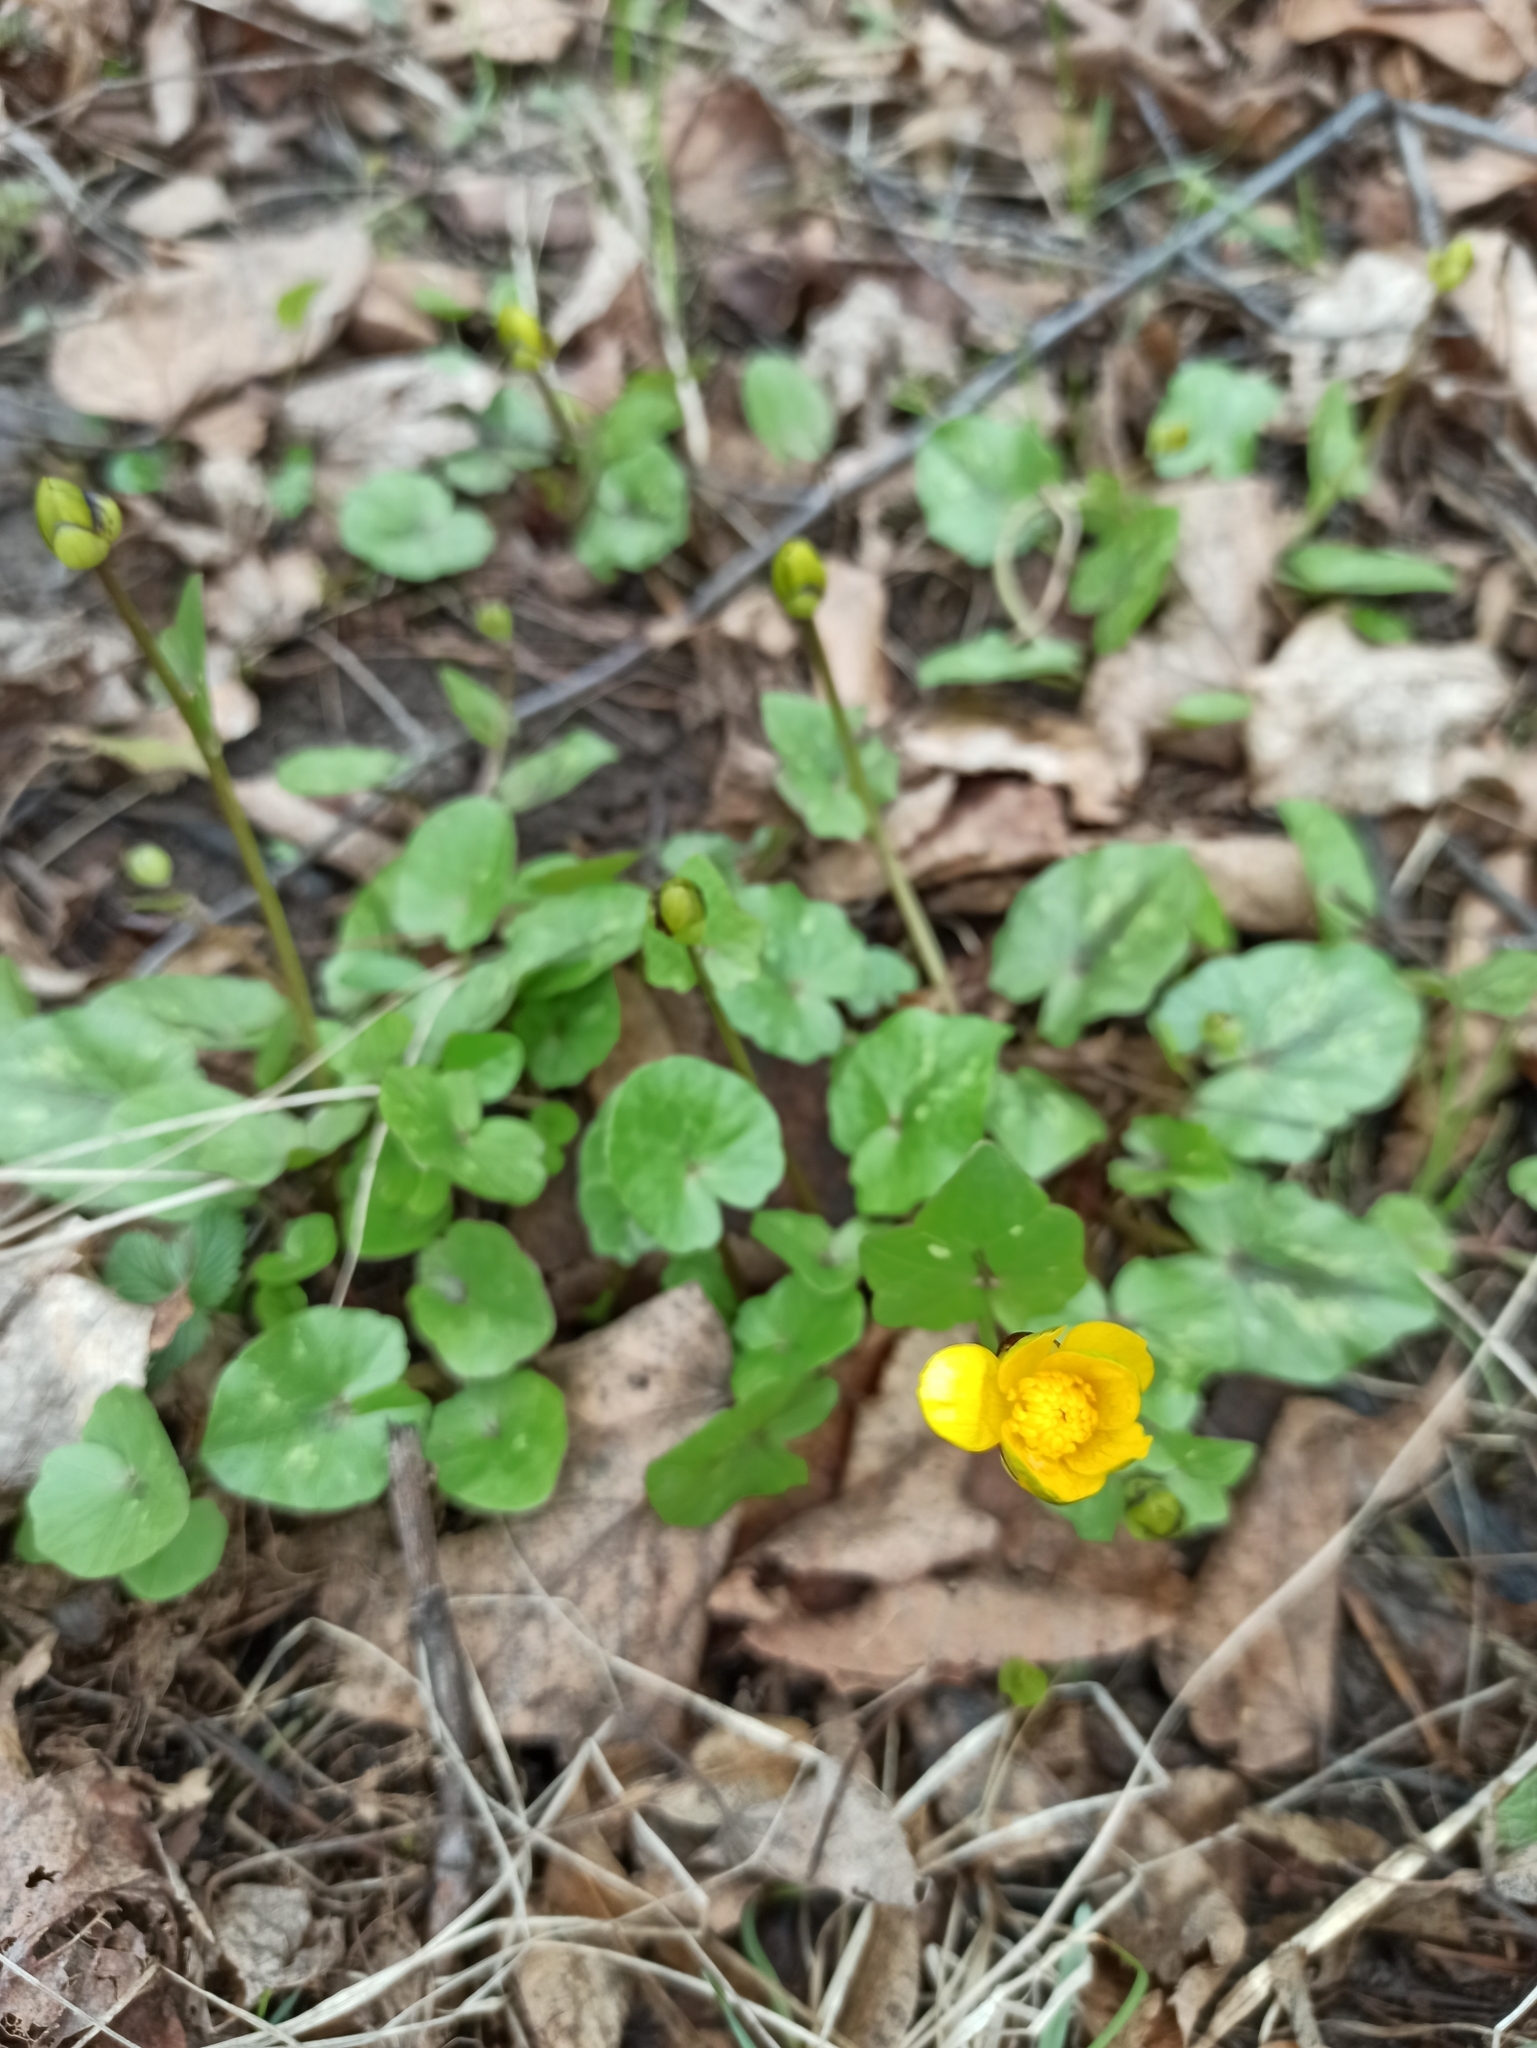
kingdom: Plantae
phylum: Tracheophyta
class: Magnoliopsida
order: Ranunculales
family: Ranunculaceae
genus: Ficaria
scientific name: Ficaria verna
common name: Lesser celandine
